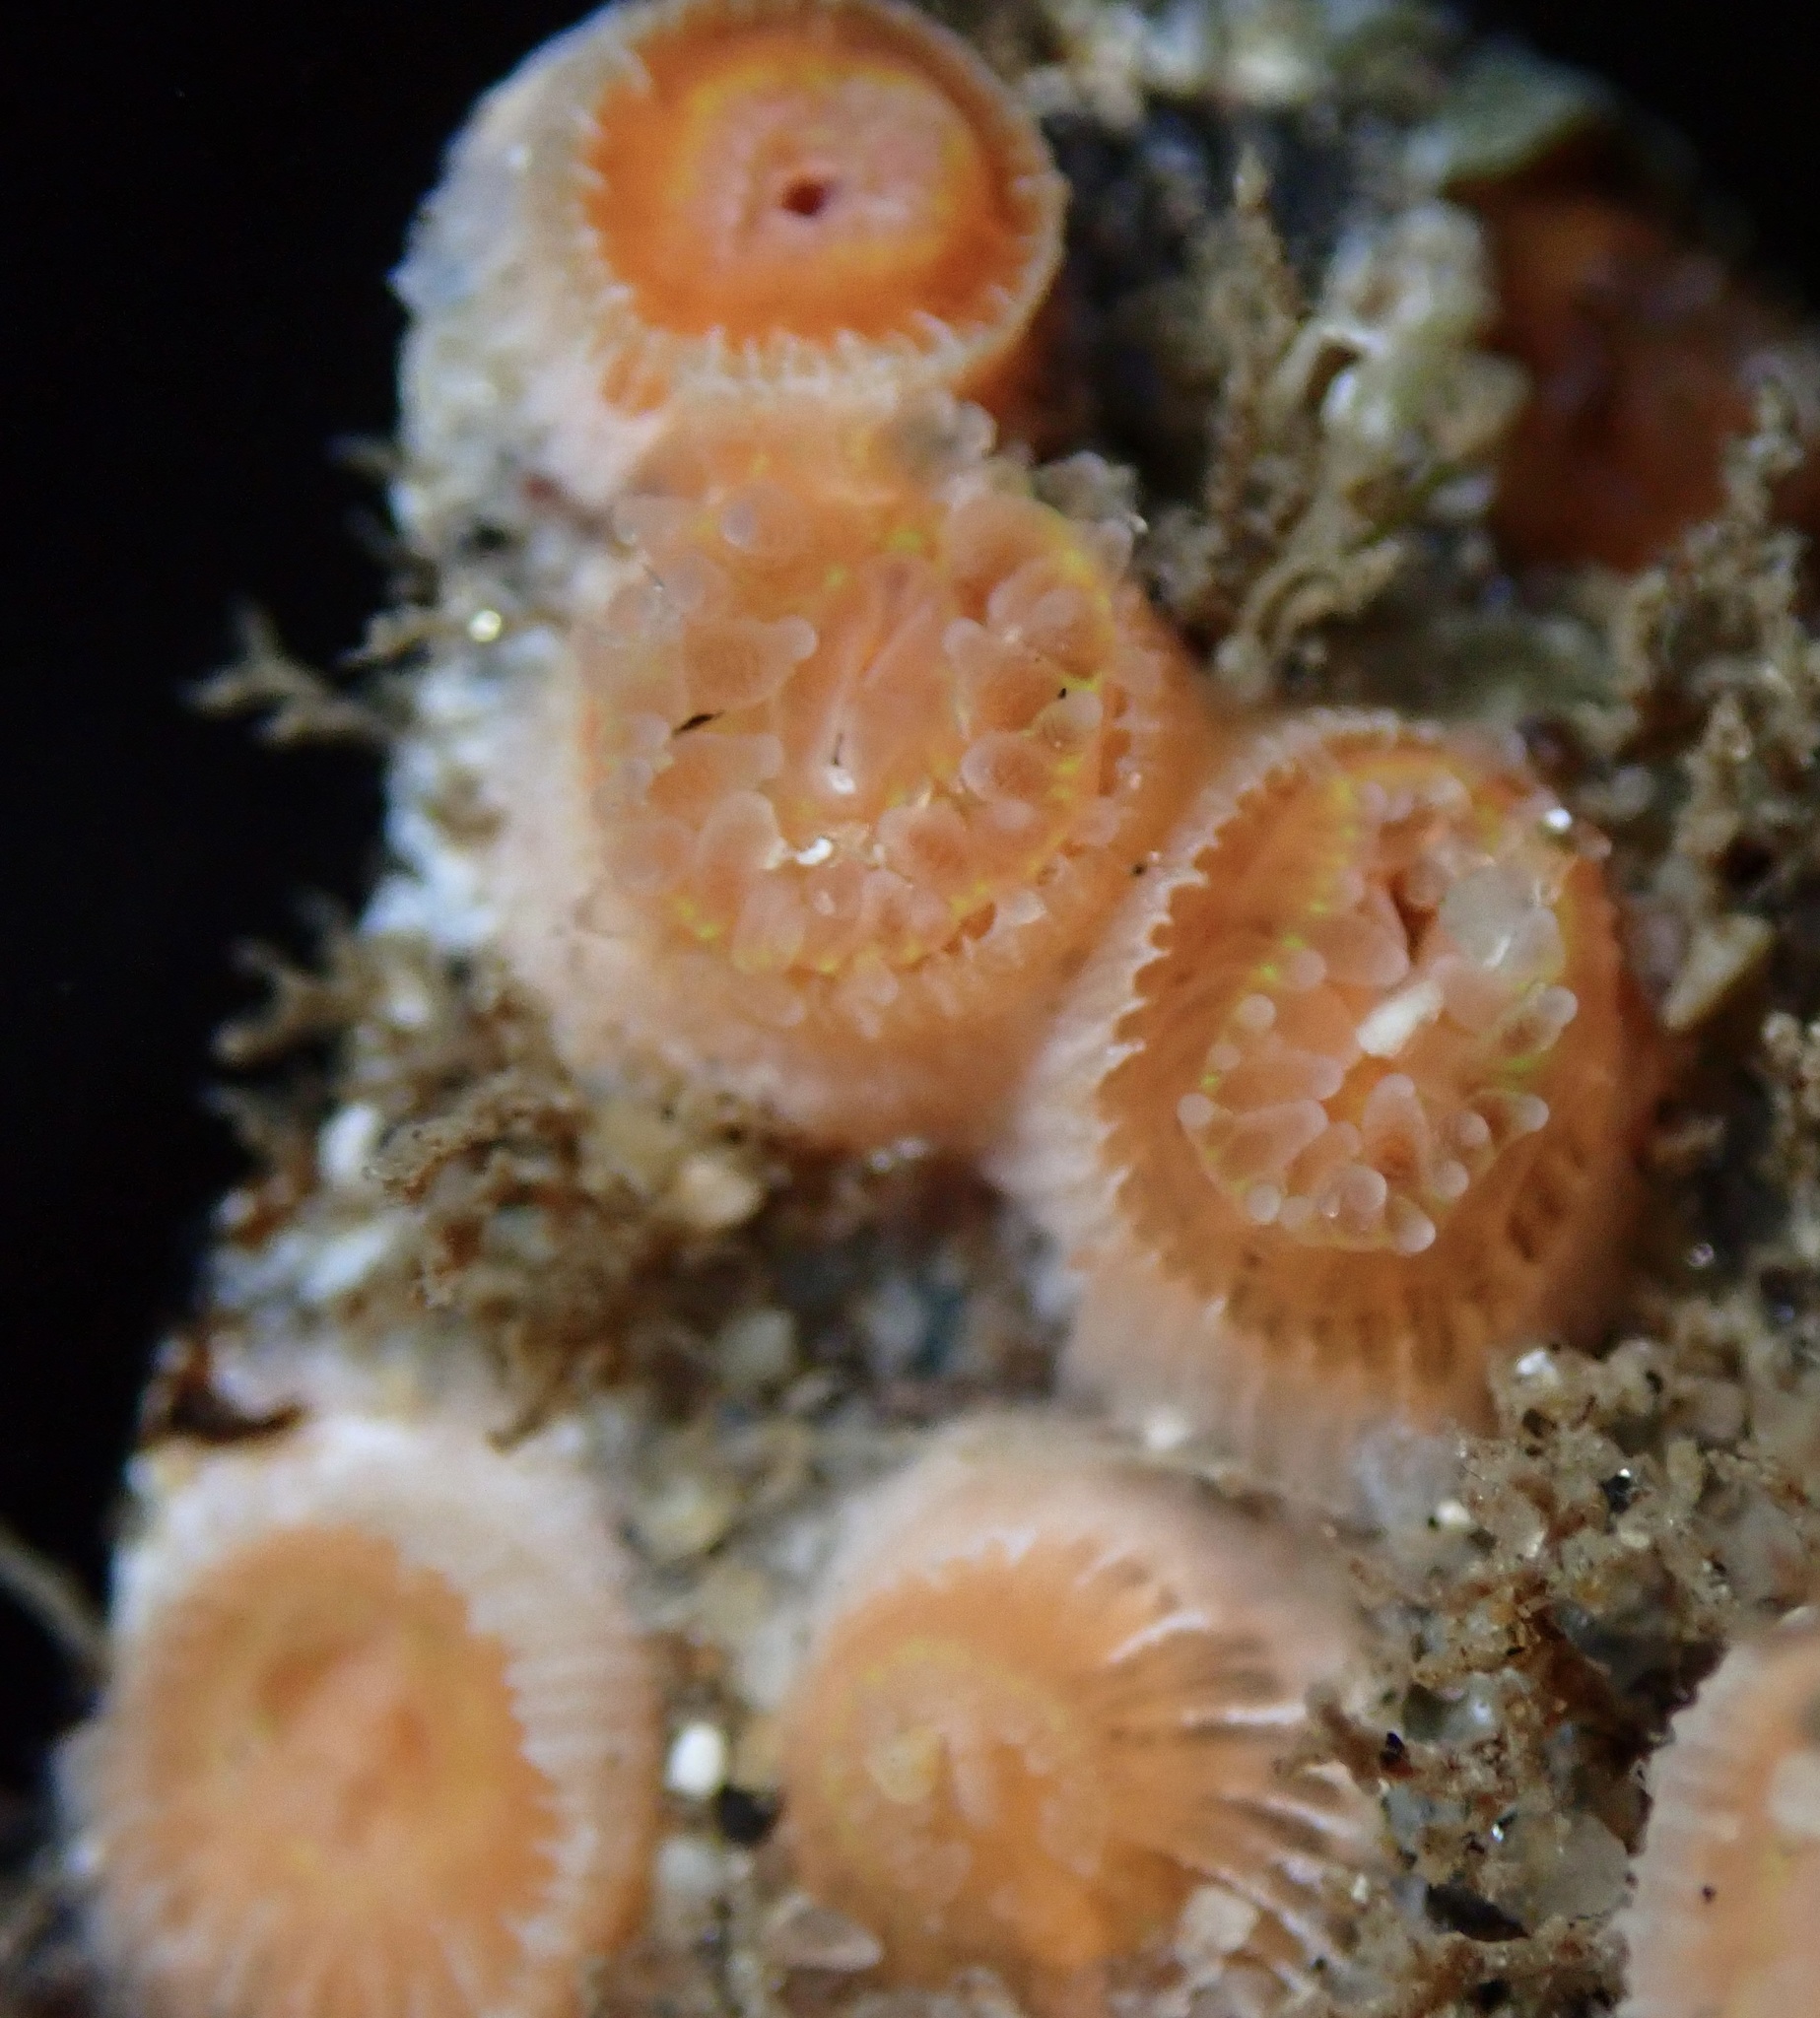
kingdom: Animalia
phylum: Cnidaria
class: Anthozoa
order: Scleractinia
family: Astrangiidae
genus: Astrangia
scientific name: Astrangia haimei
